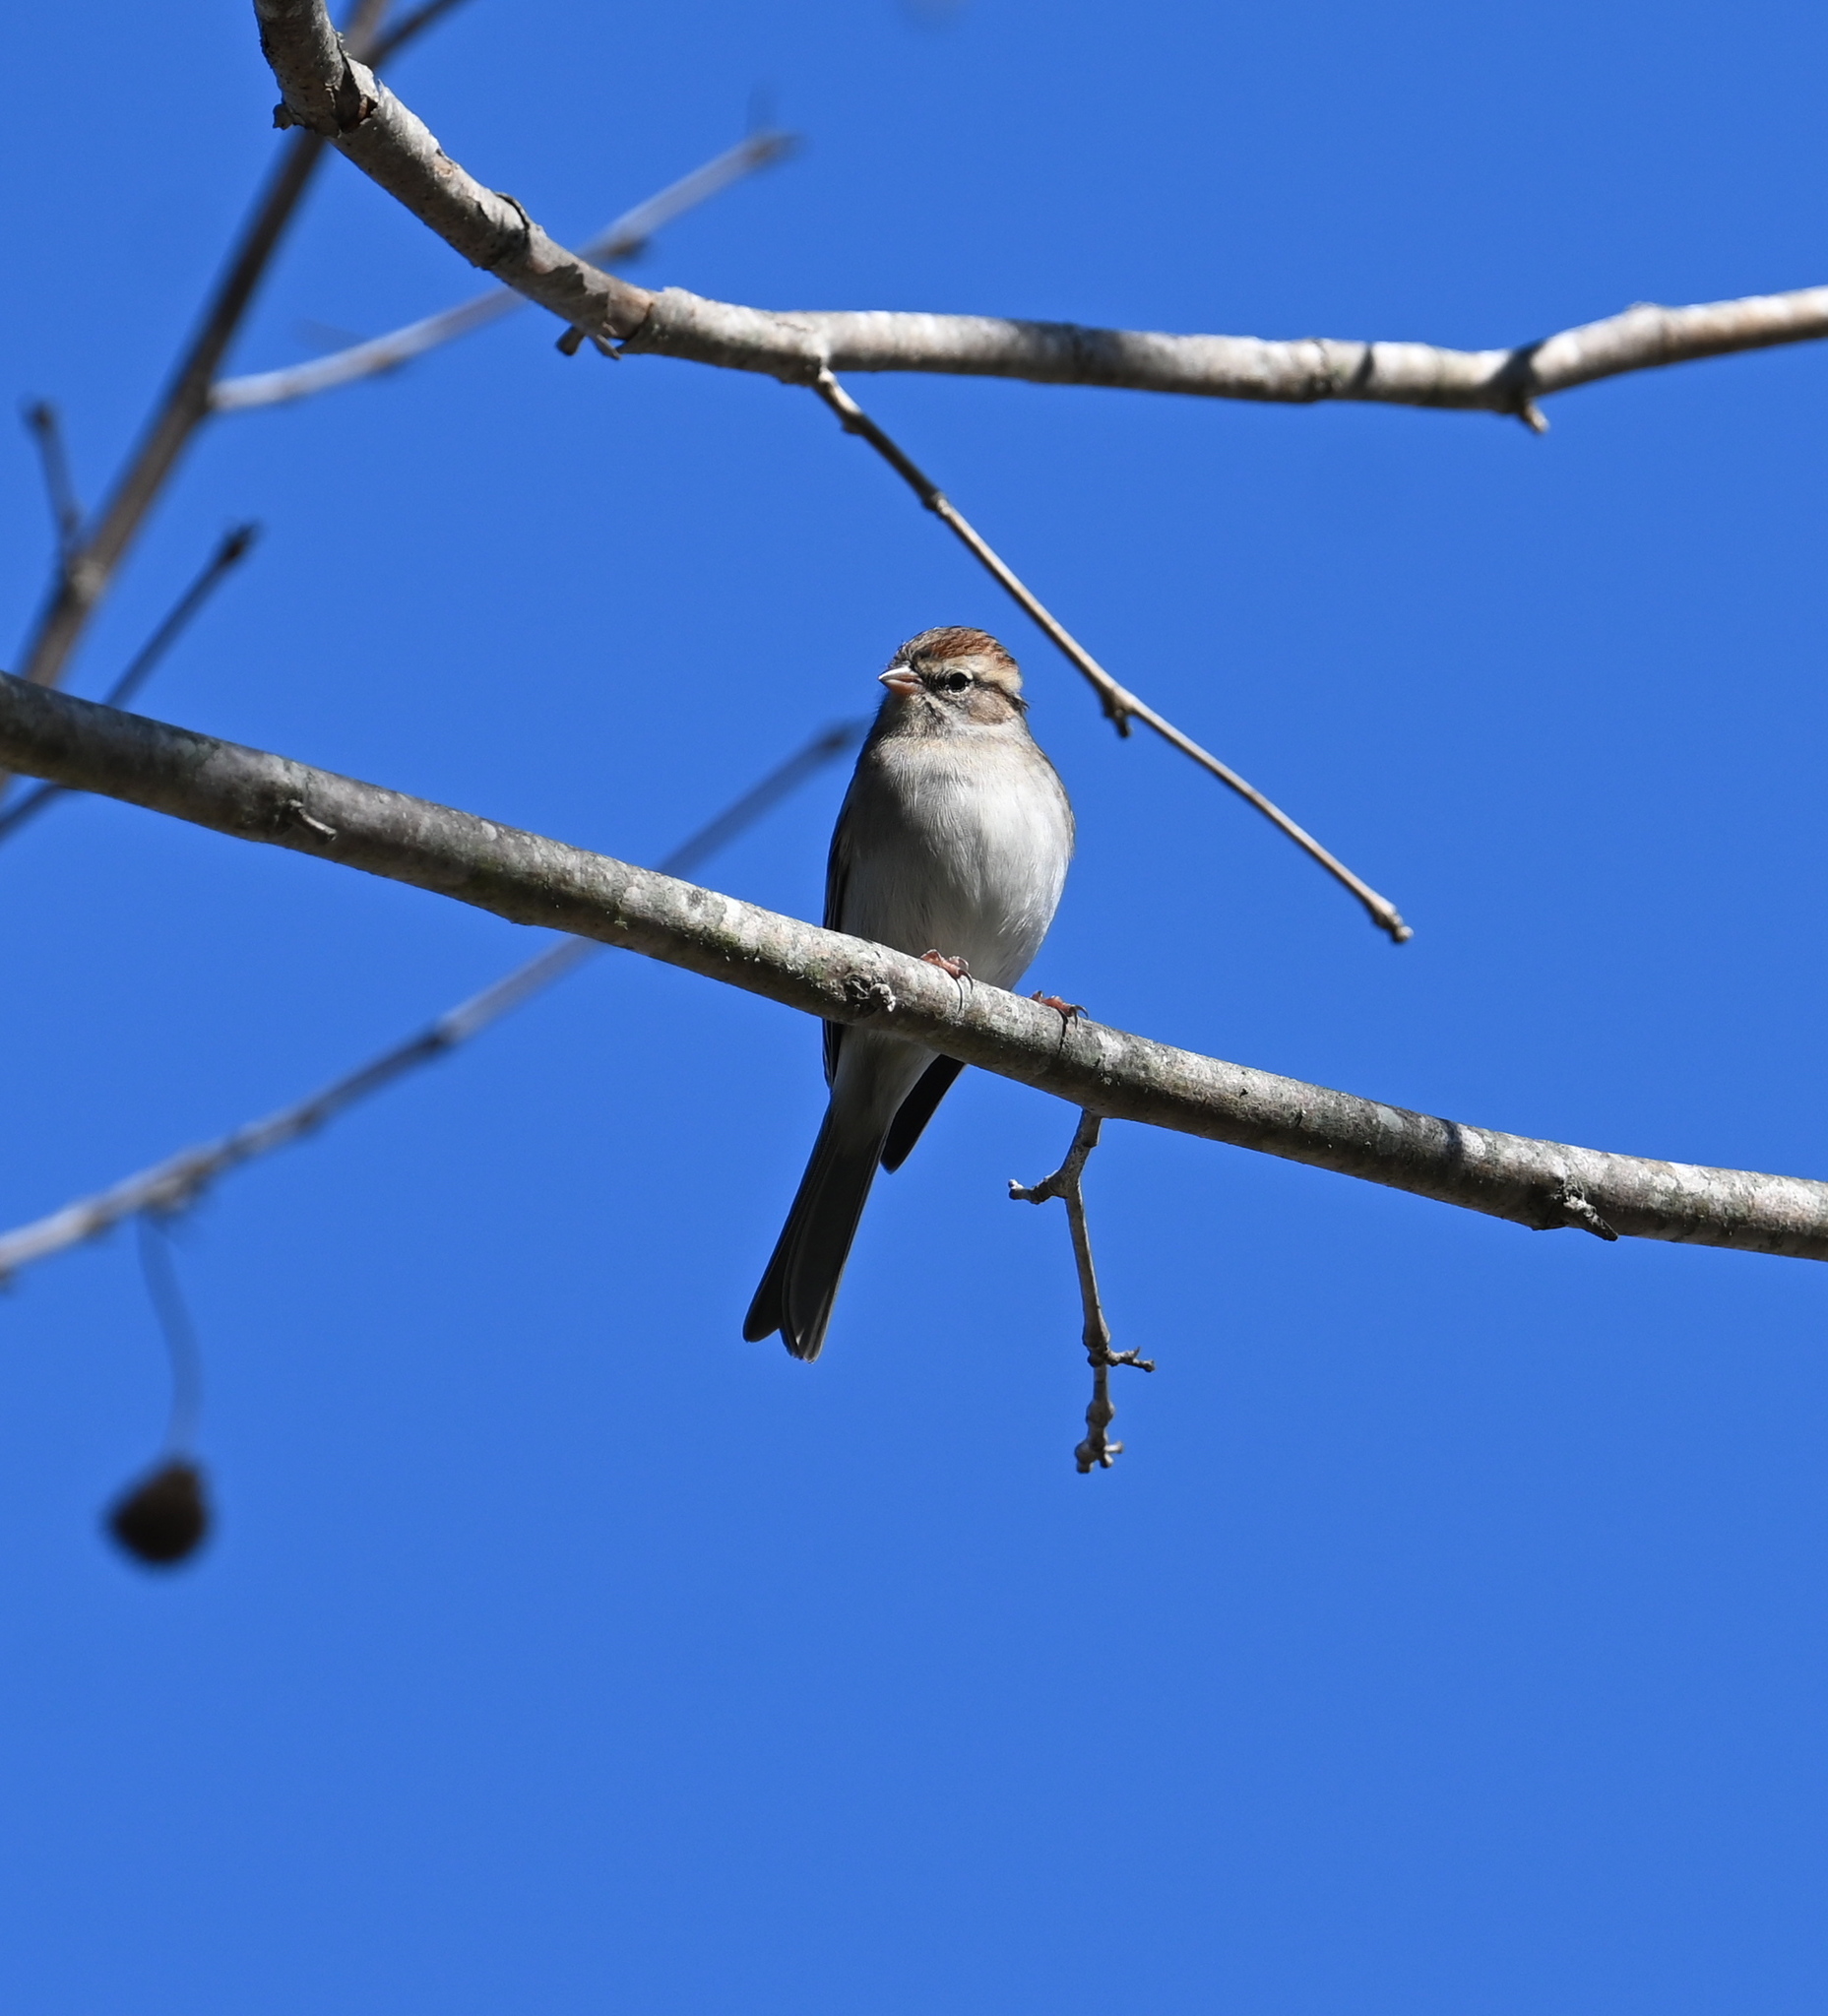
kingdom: Animalia
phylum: Chordata
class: Aves
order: Passeriformes
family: Passerellidae
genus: Spizella
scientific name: Spizella passerina
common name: Chipping sparrow
